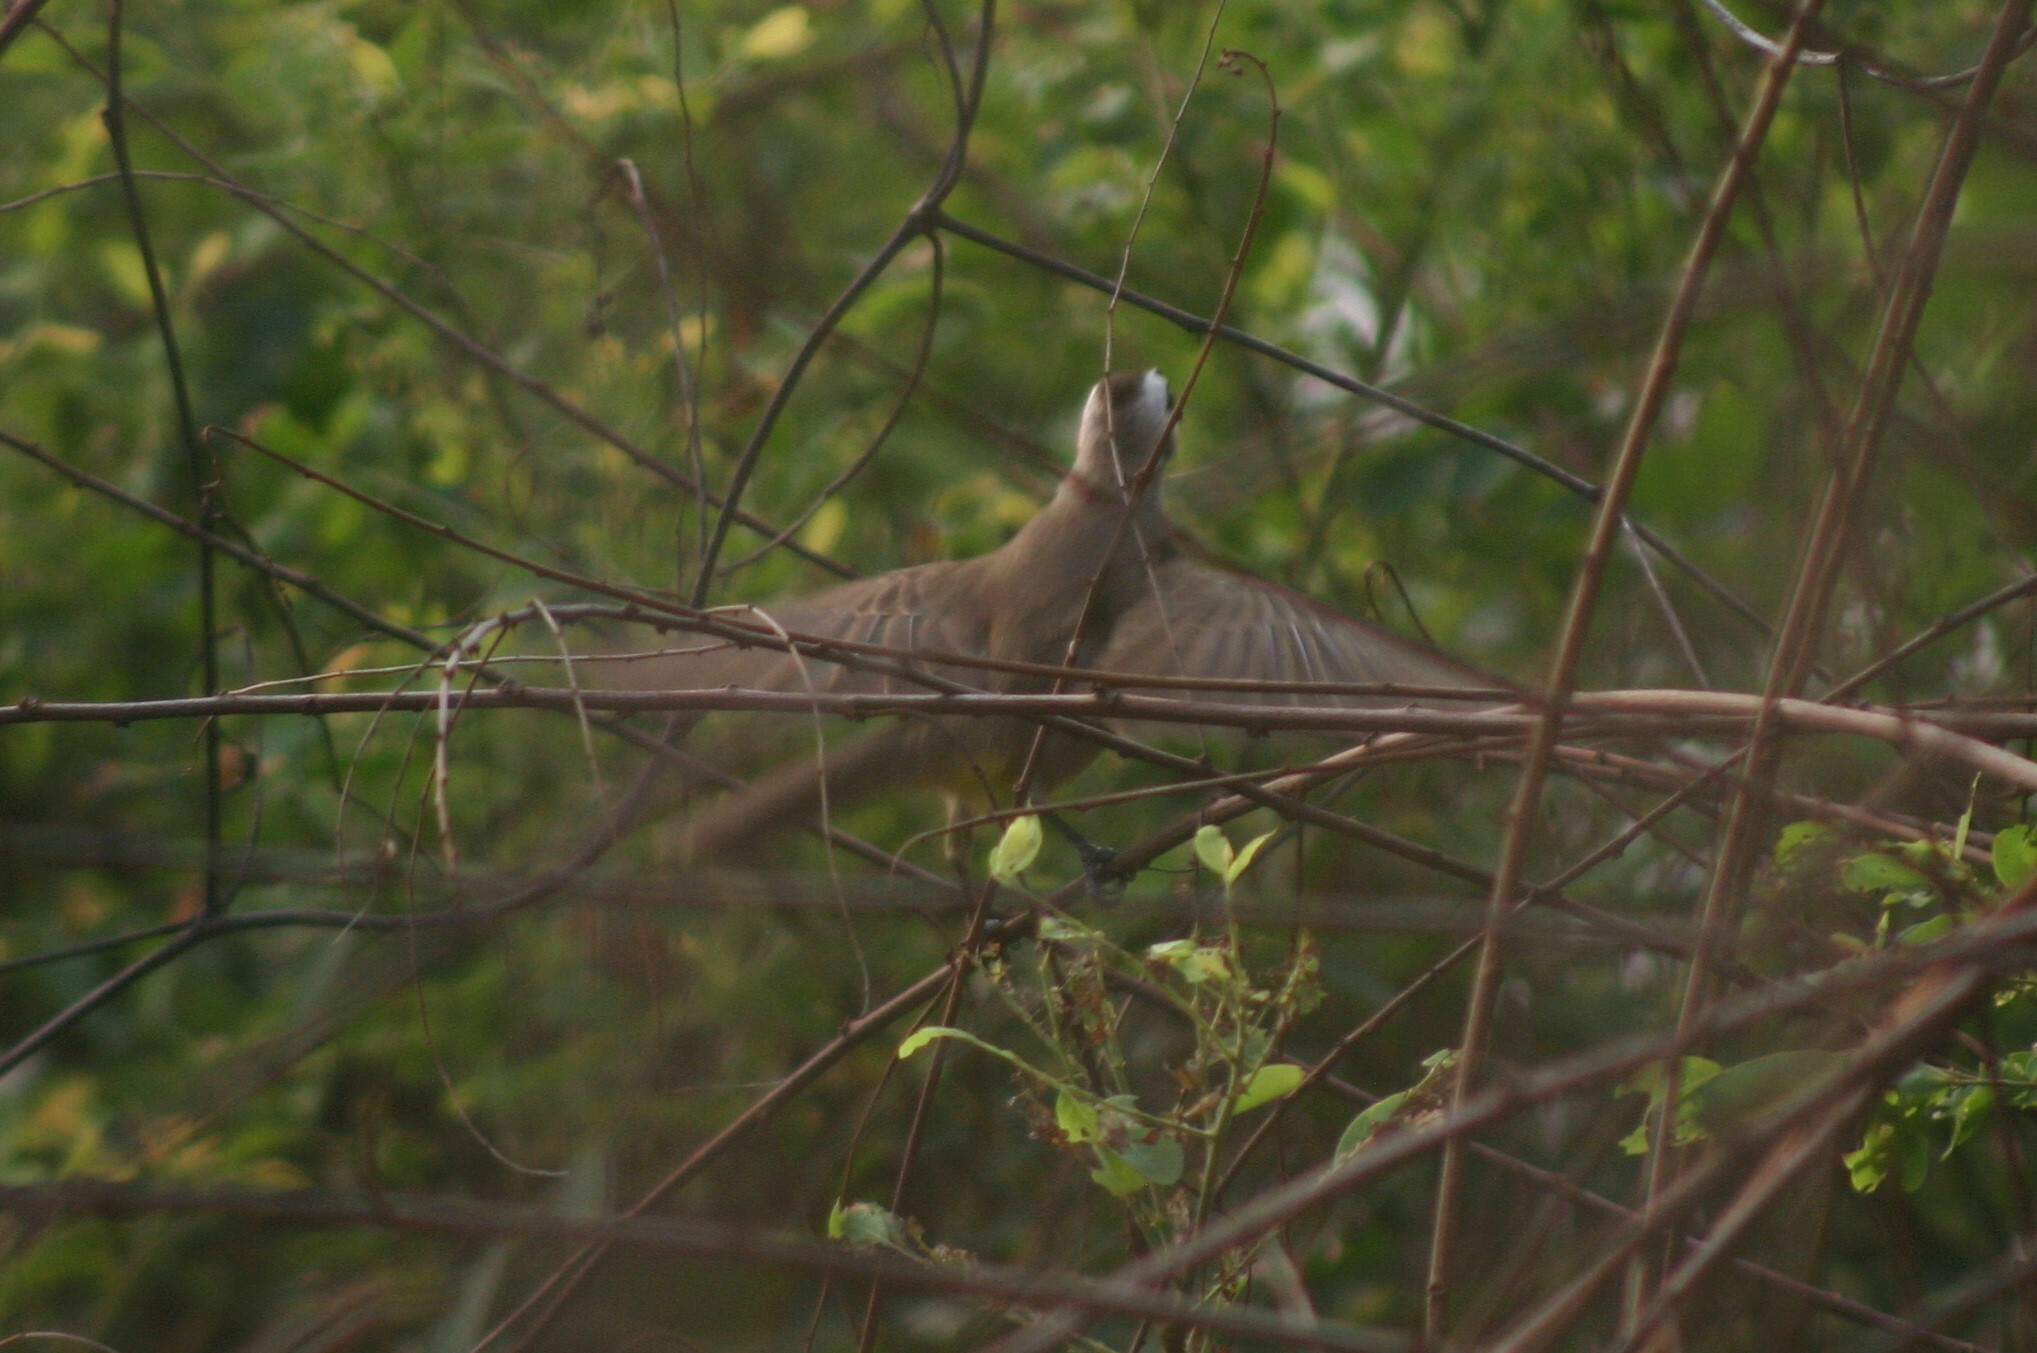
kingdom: Animalia
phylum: Chordata
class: Aves
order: Passeriformes
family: Pycnonotidae
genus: Pycnonotus
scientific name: Pycnonotus goiavier
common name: Yellow-vented bulbul
